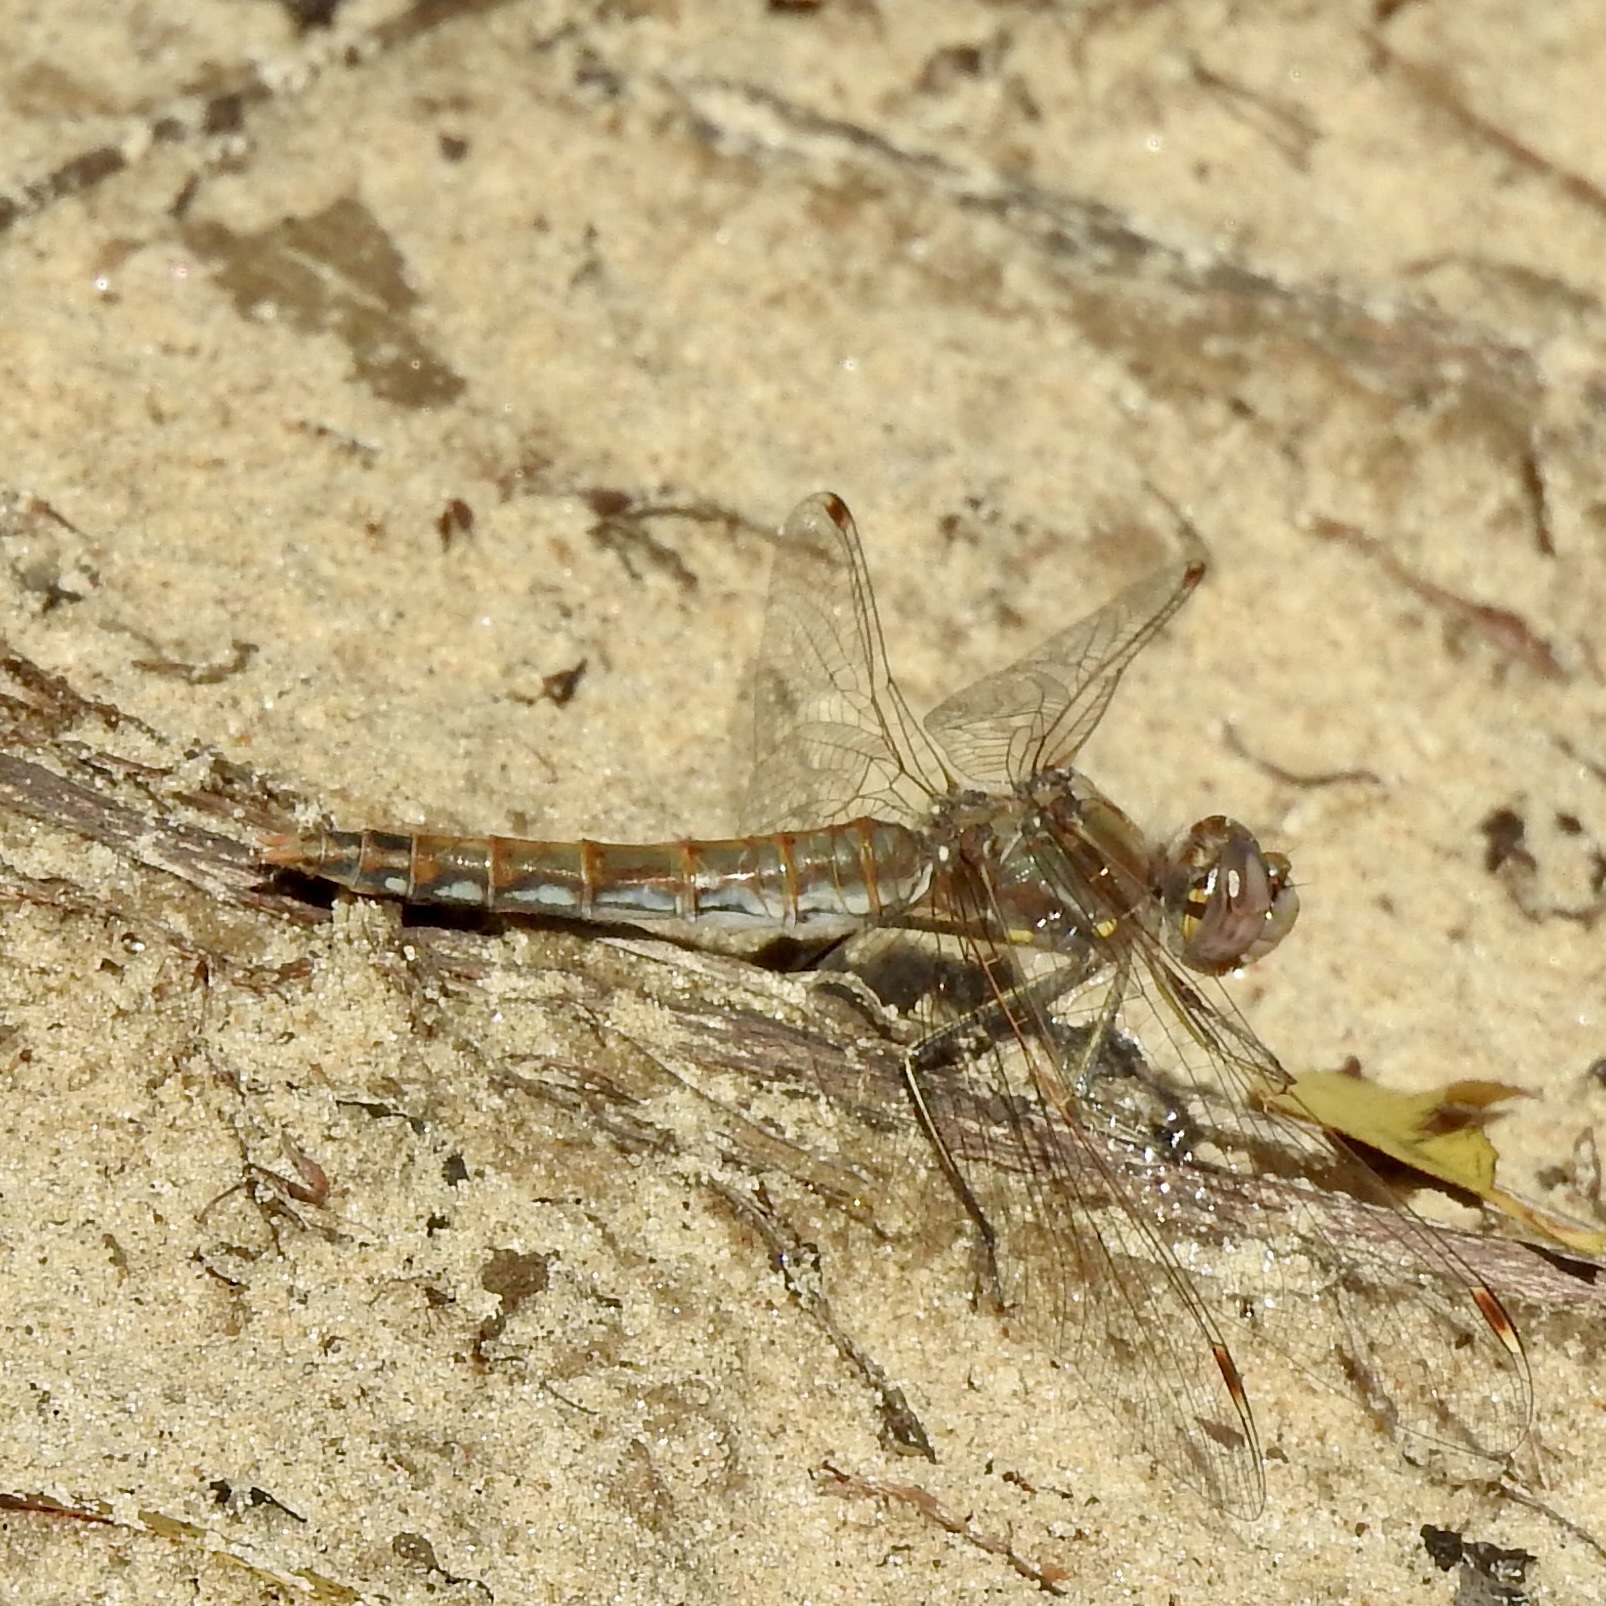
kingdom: Animalia
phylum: Arthropoda
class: Insecta
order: Odonata
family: Libellulidae
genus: Sympetrum
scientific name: Sympetrum corruptum
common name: Variegated meadowhawk
